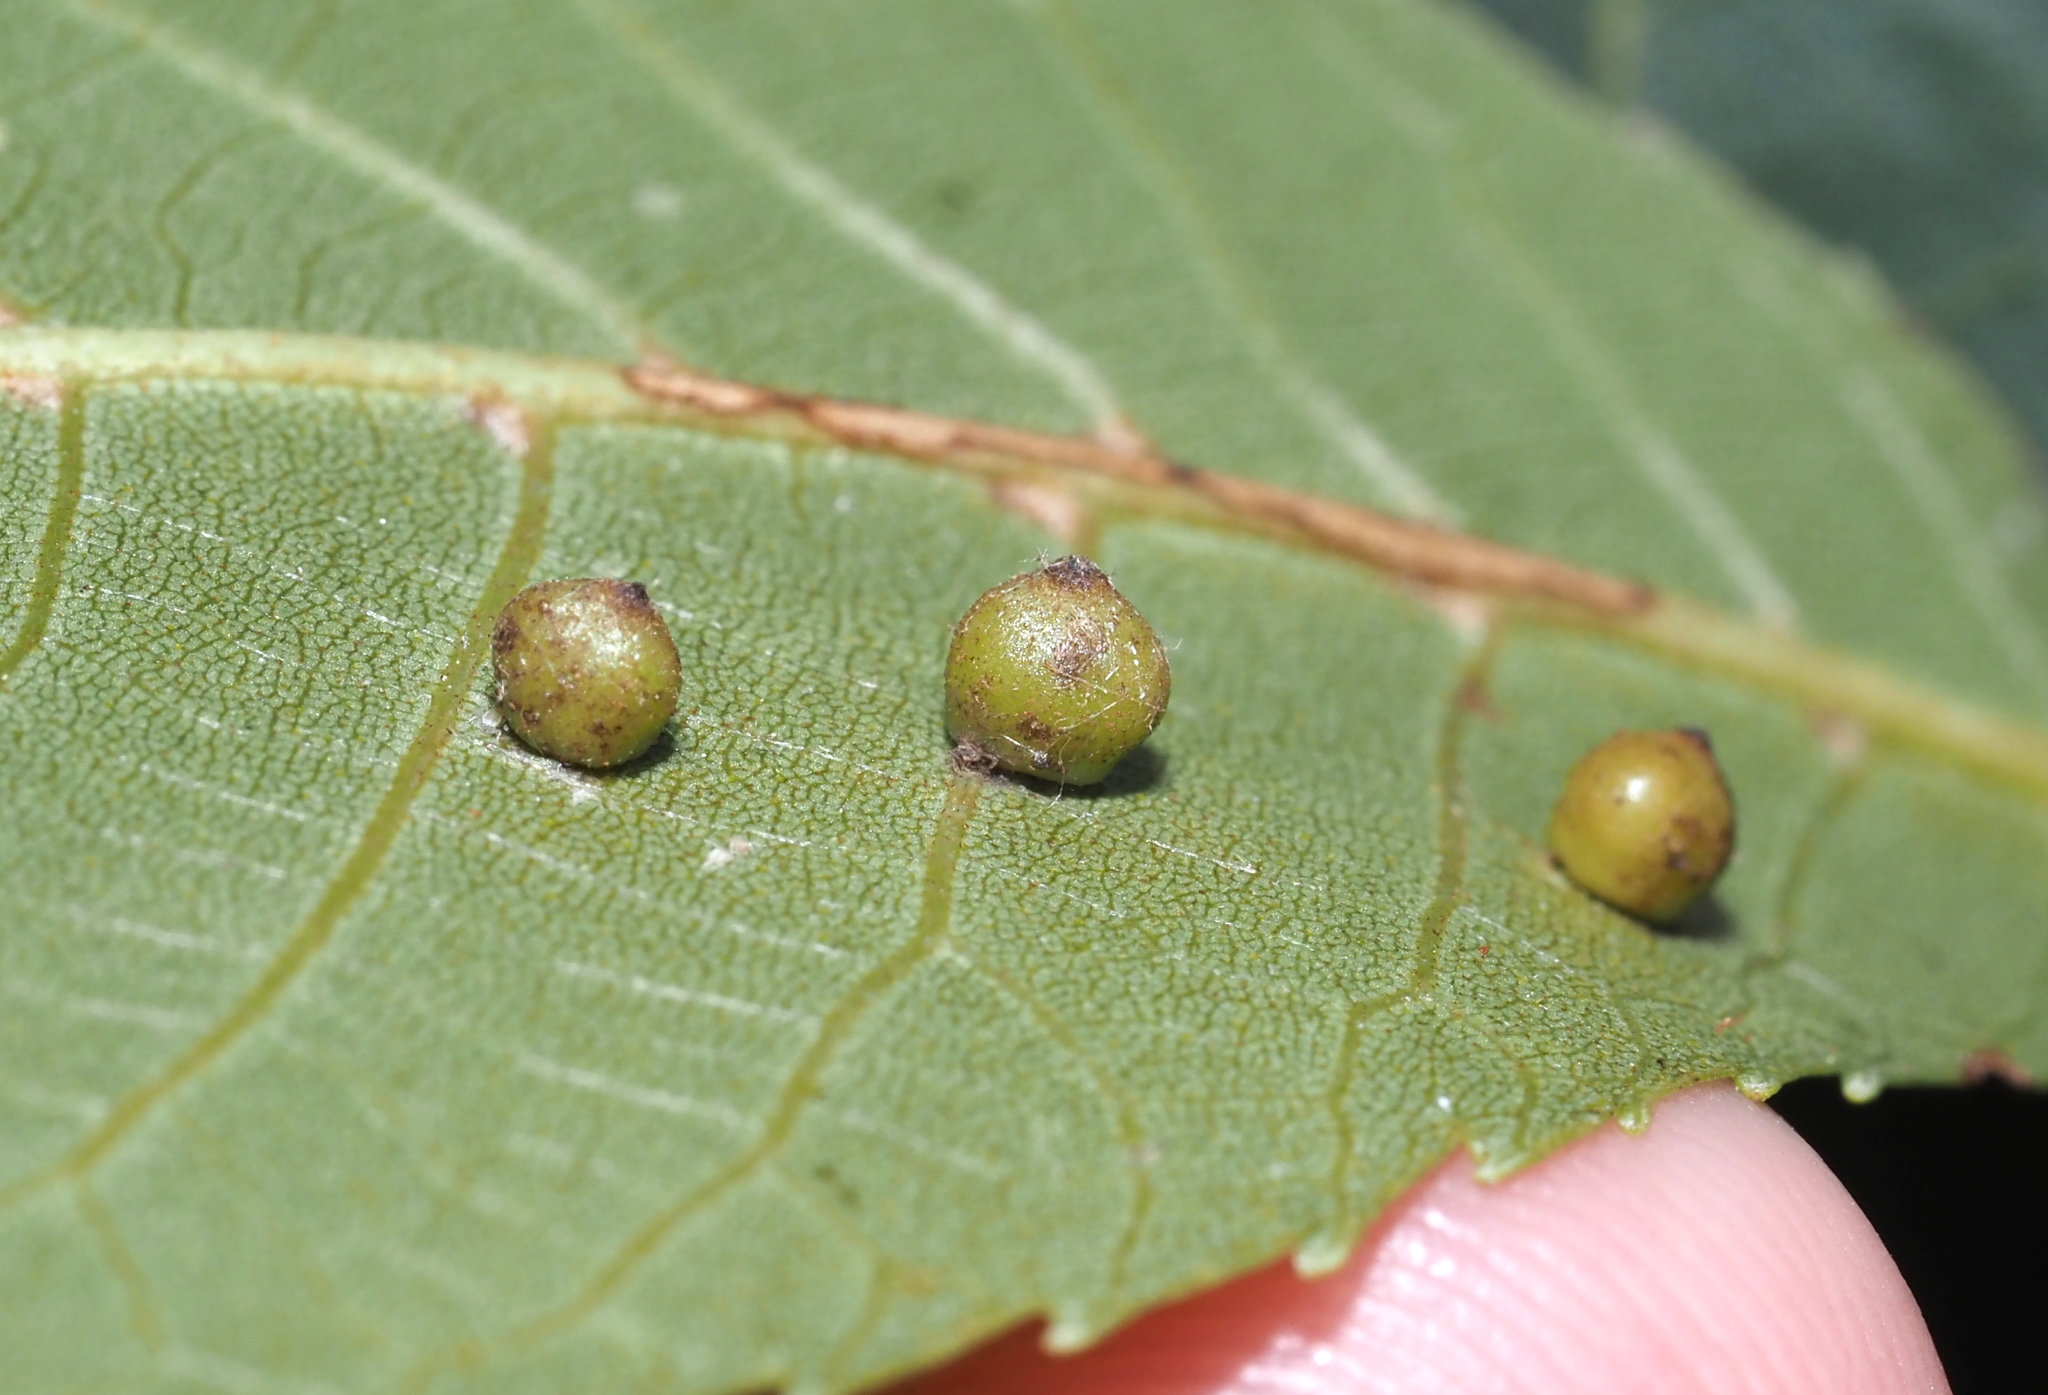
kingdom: Animalia
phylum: Arthropoda
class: Insecta
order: Diptera
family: Cecidomyiidae
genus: Caryomyia
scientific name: Caryomyia caryae
